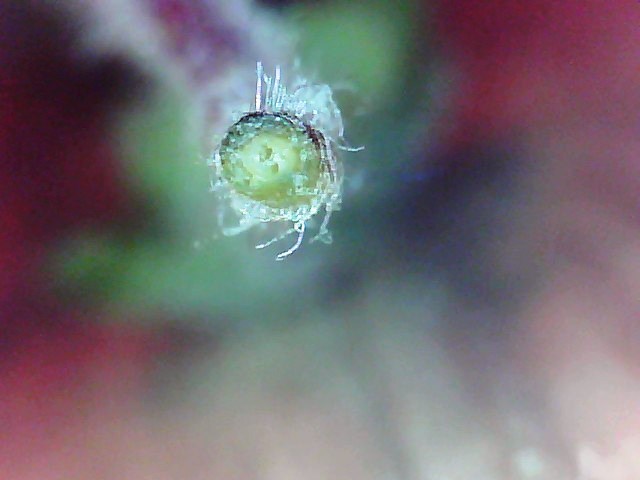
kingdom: Plantae
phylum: Tracheophyta
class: Magnoliopsida
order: Lamiales
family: Phrymaceae
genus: Erythranthe
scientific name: Erythranthe moschata
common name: Muskflower
